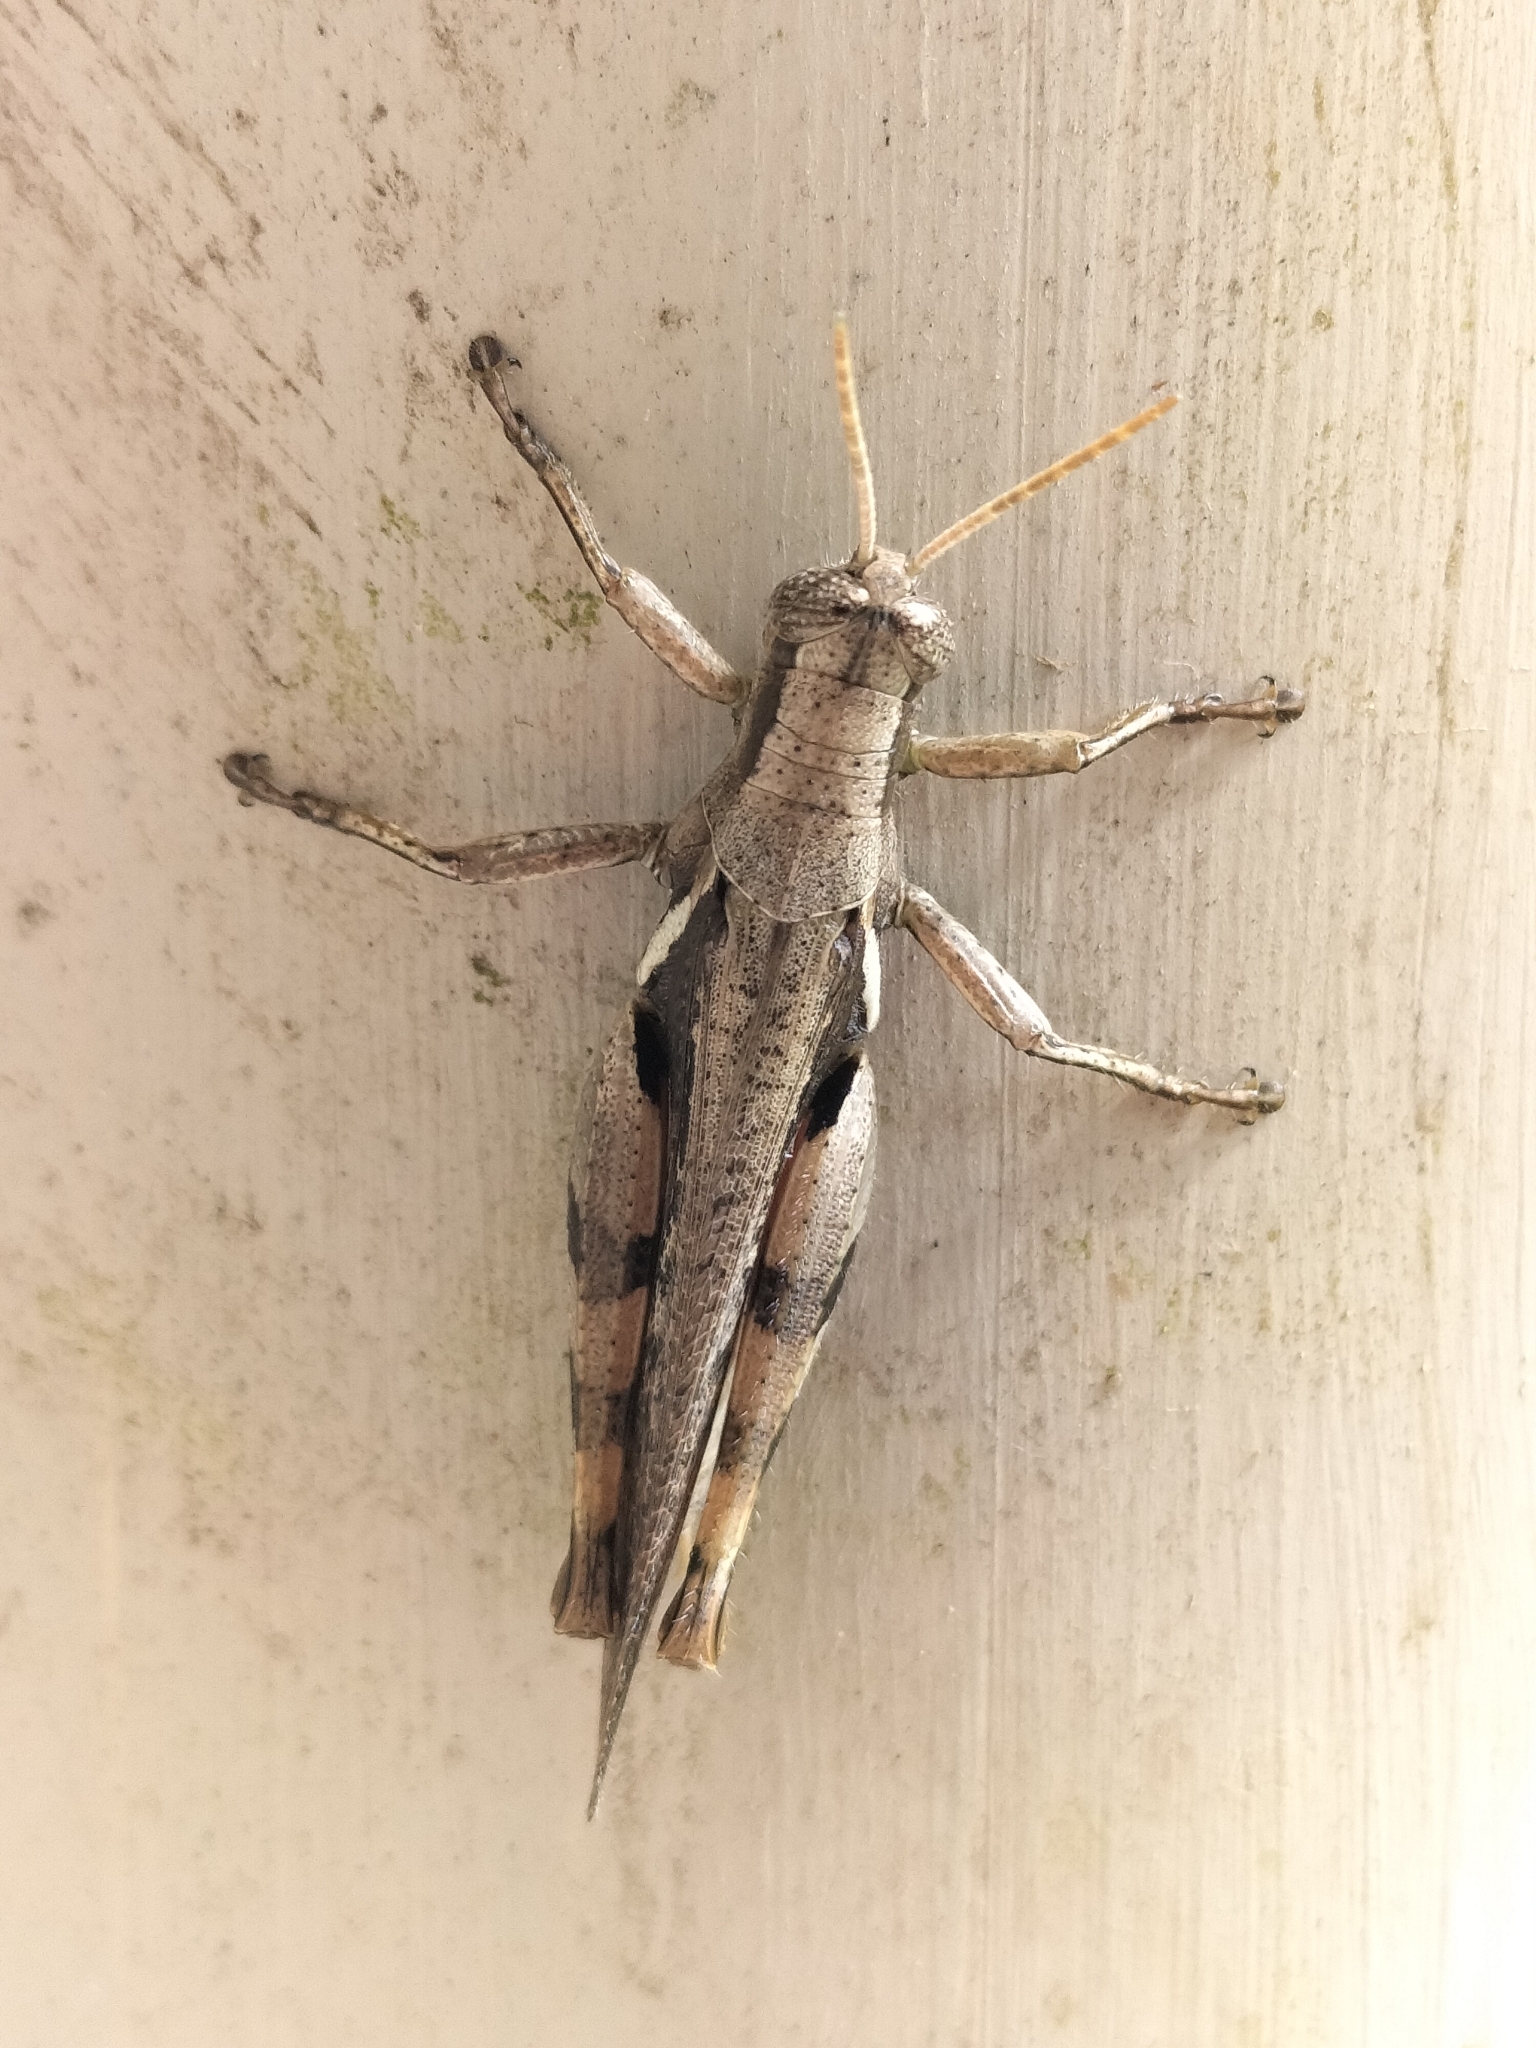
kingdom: Animalia
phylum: Arthropoda
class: Insecta
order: Orthoptera
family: Acrididae
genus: Stenocatantops
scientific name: Stenocatantops angustifrons
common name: Common tropical sharptail
